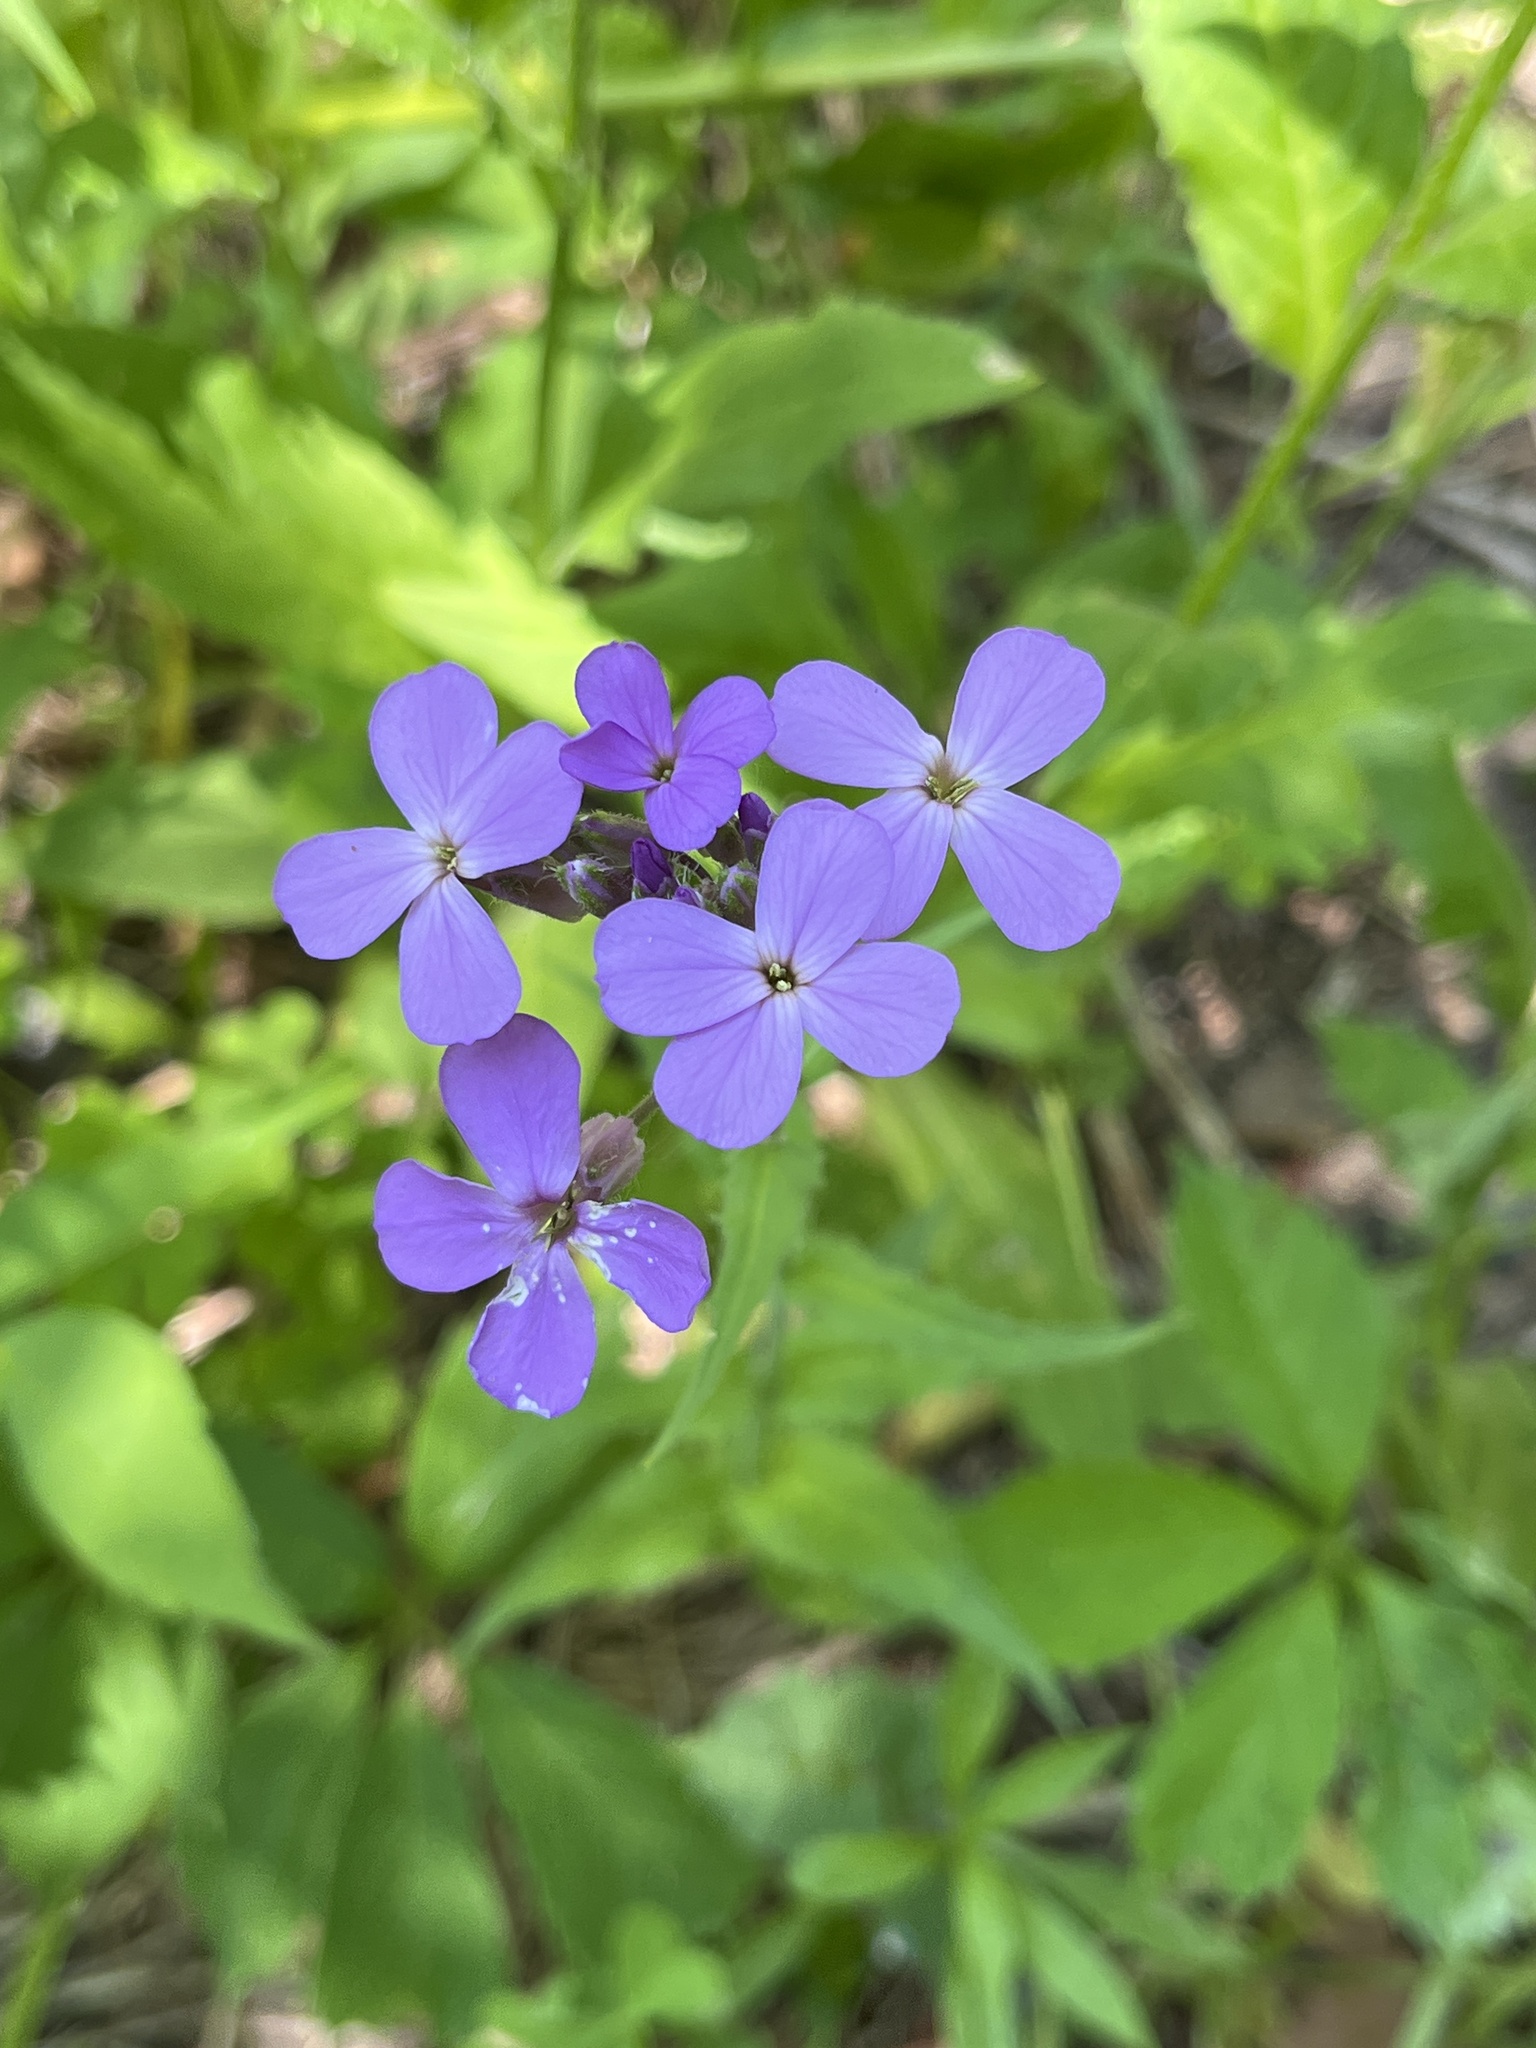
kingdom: Plantae
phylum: Tracheophyta
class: Magnoliopsida
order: Brassicales
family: Brassicaceae
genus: Hesperis
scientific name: Hesperis matronalis
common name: Dame's-violet
